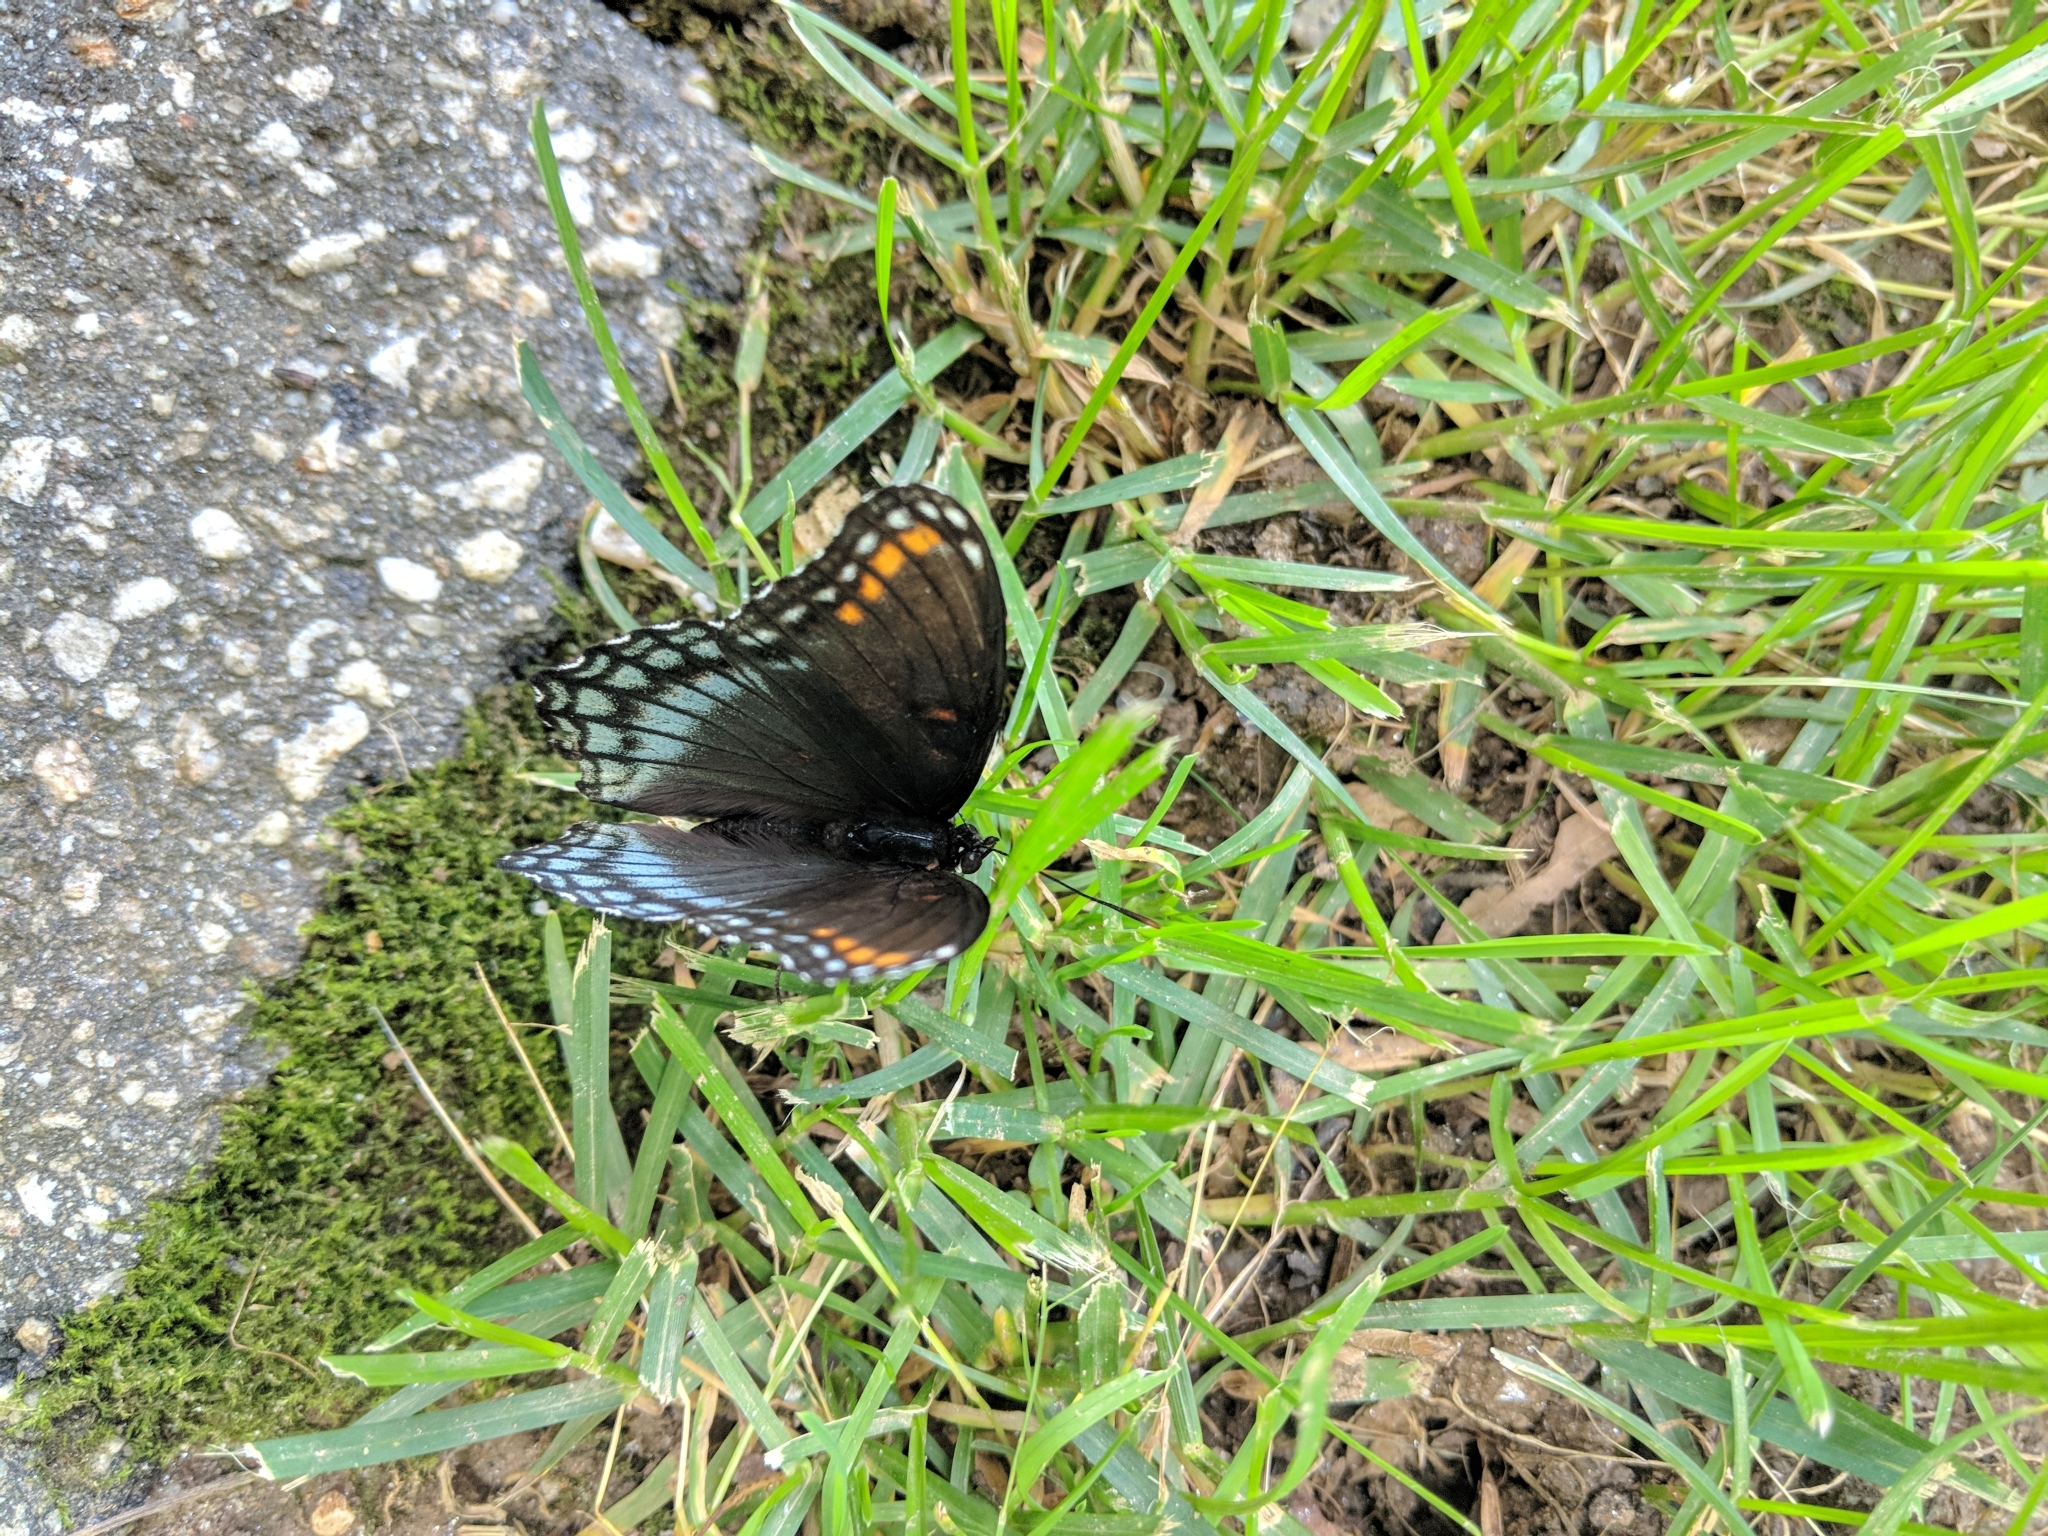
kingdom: Animalia
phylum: Arthropoda
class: Insecta
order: Lepidoptera
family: Nymphalidae
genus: Limenitis
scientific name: Limenitis astyanax
